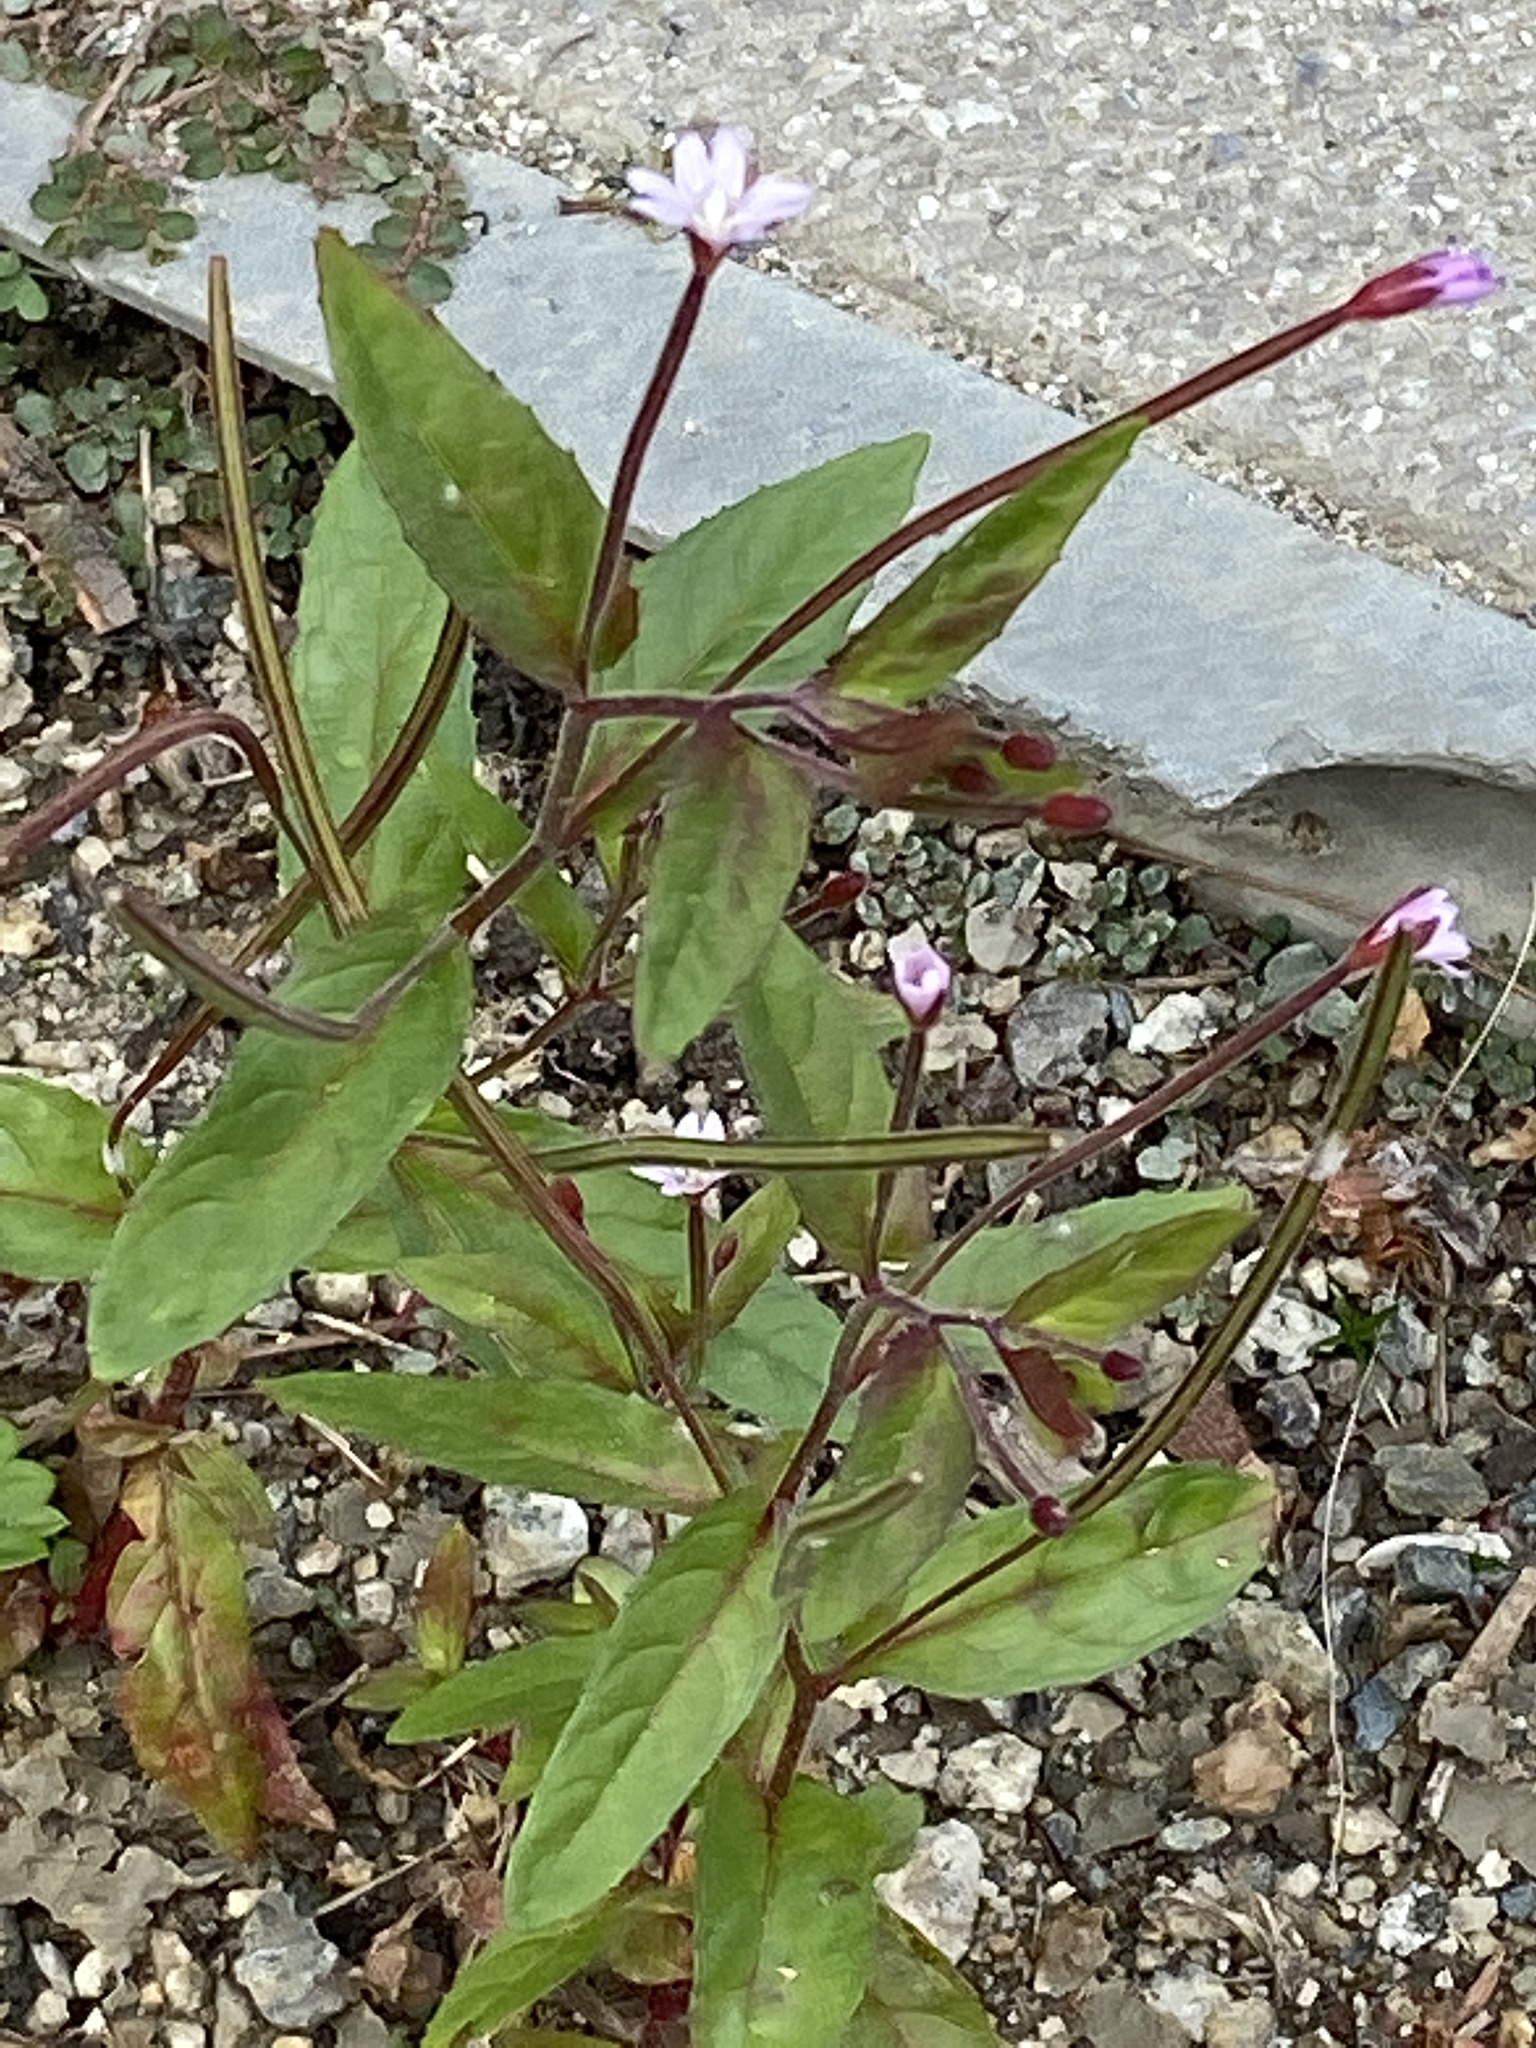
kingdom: Plantae
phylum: Tracheophyta
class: Magnoliopsida
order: Myrtales
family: Onagraceae
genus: Epilobium
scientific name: Epilobium ciliatum
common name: American willowherb
